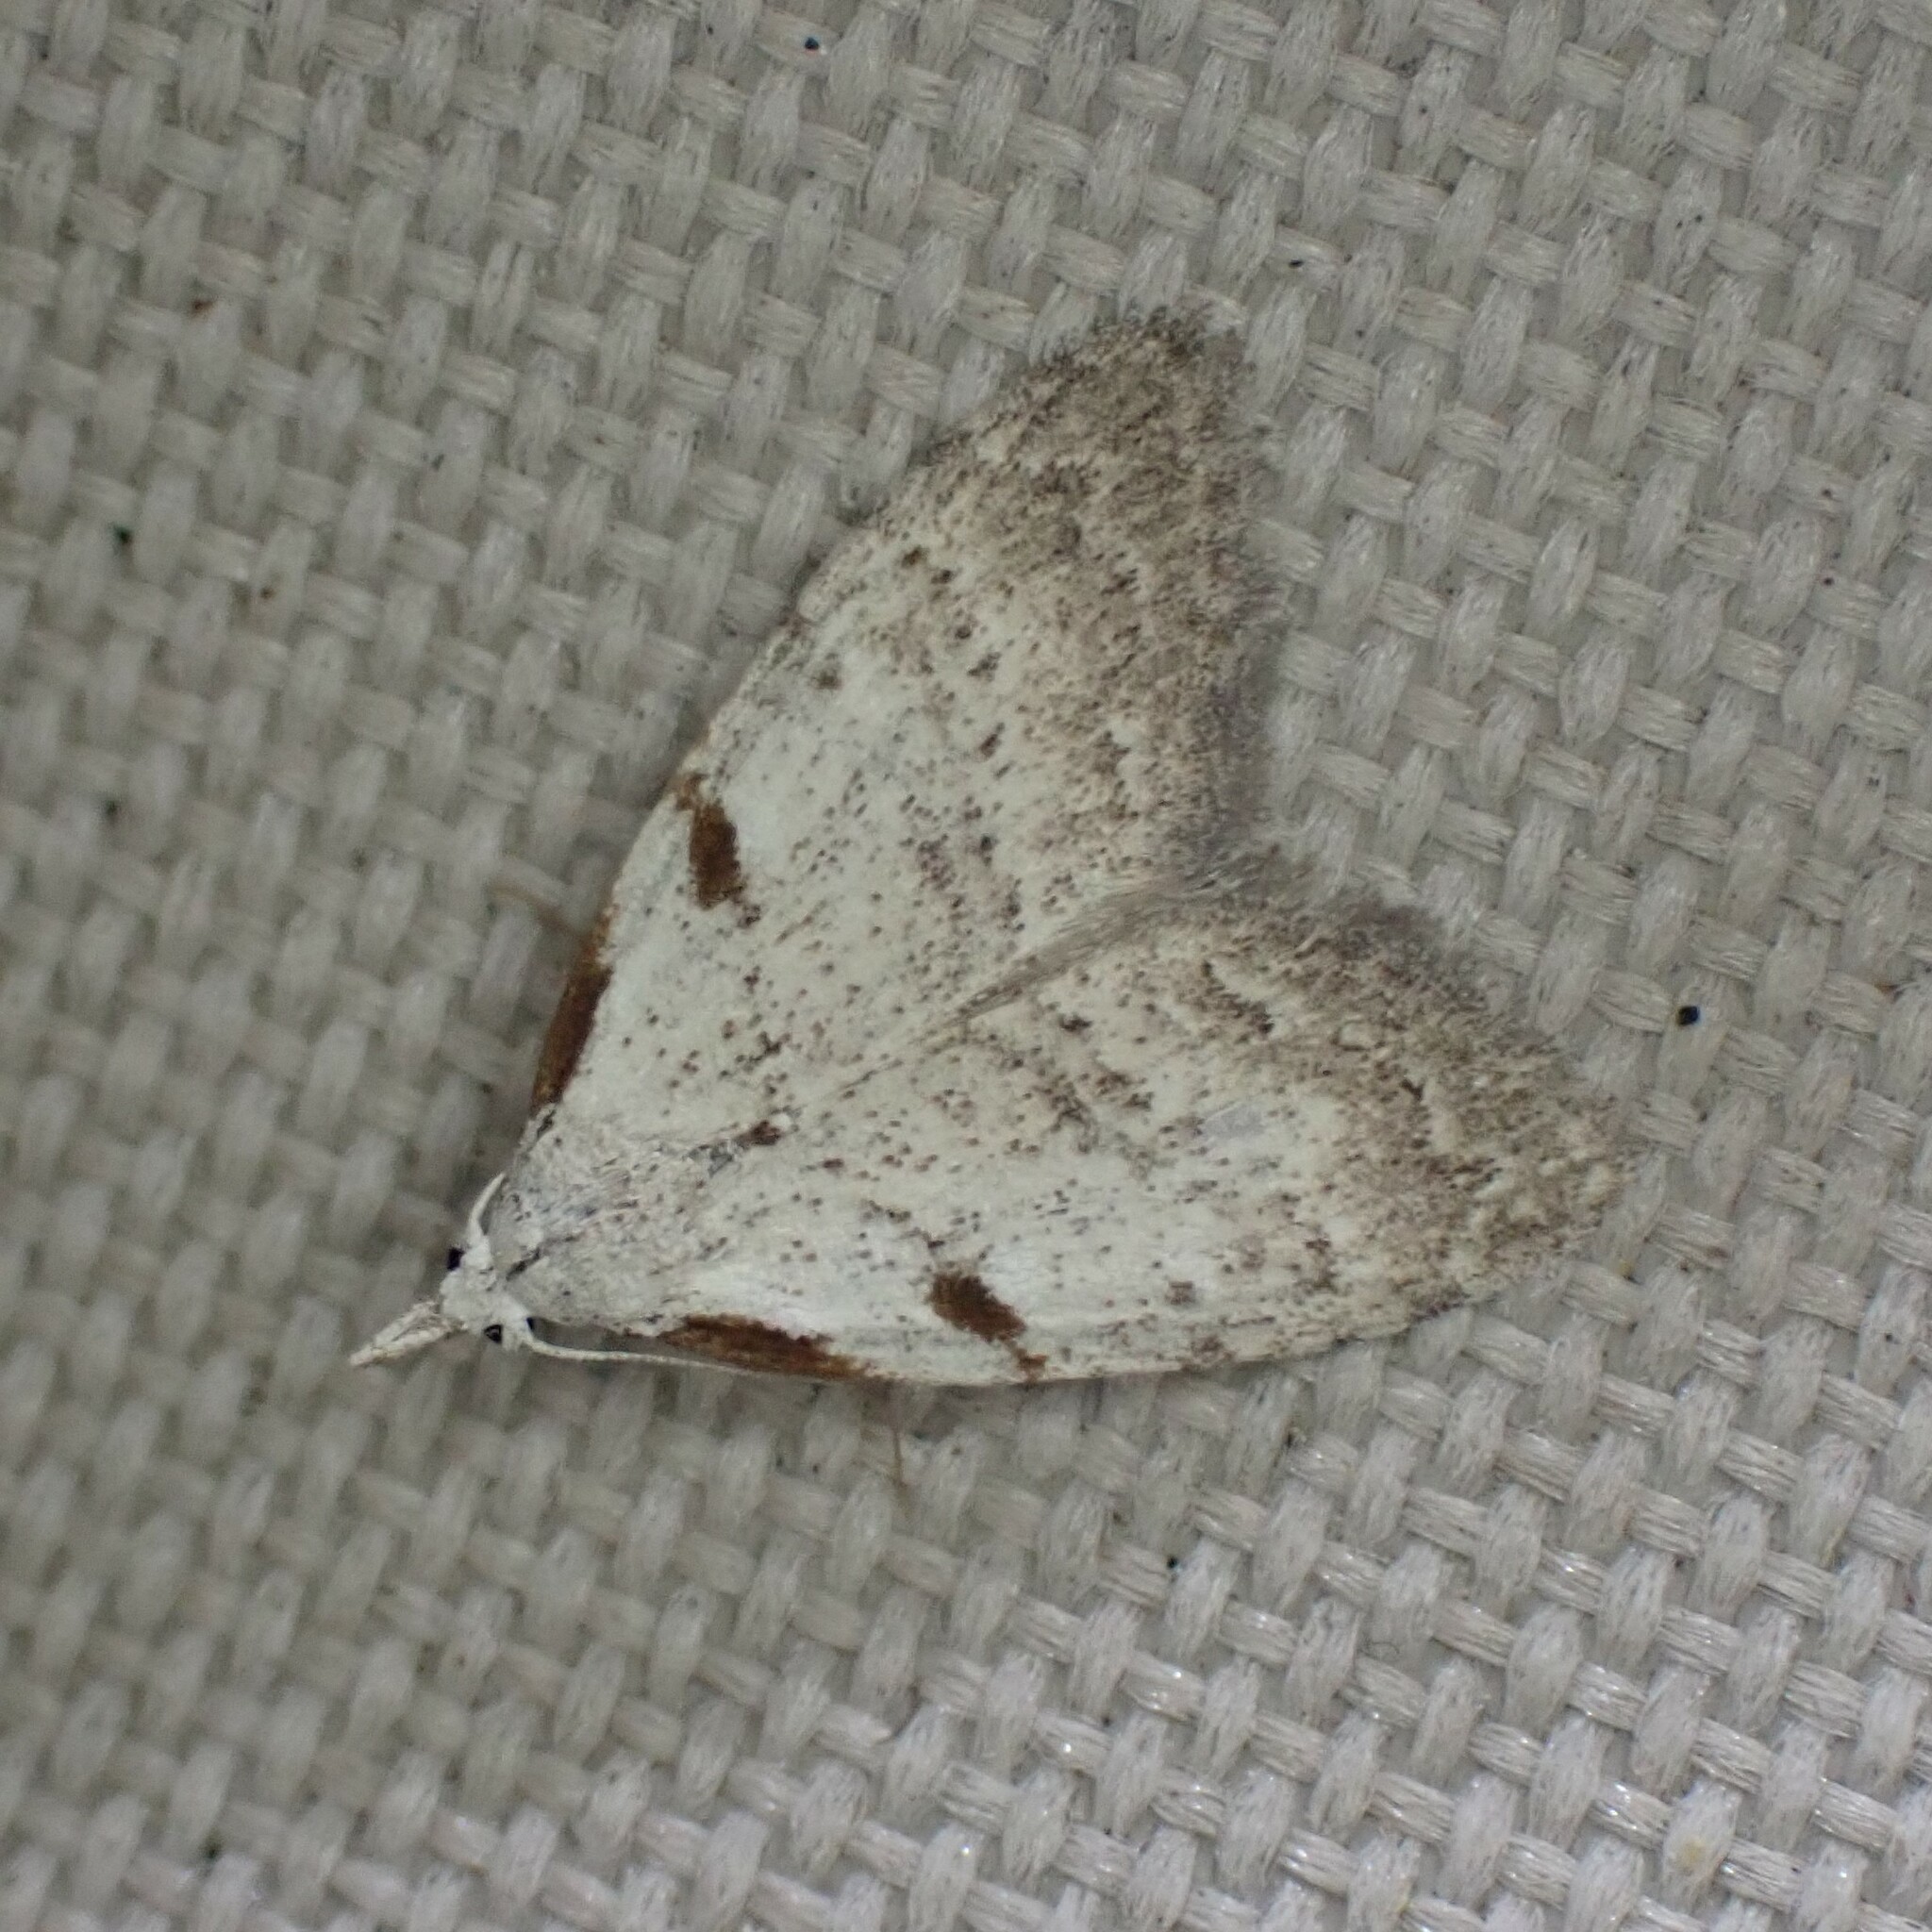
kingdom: Animalia
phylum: Arthropoda
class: Insecta
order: Lepidoptera
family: Nolidae
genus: Nola
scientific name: Nola minna
